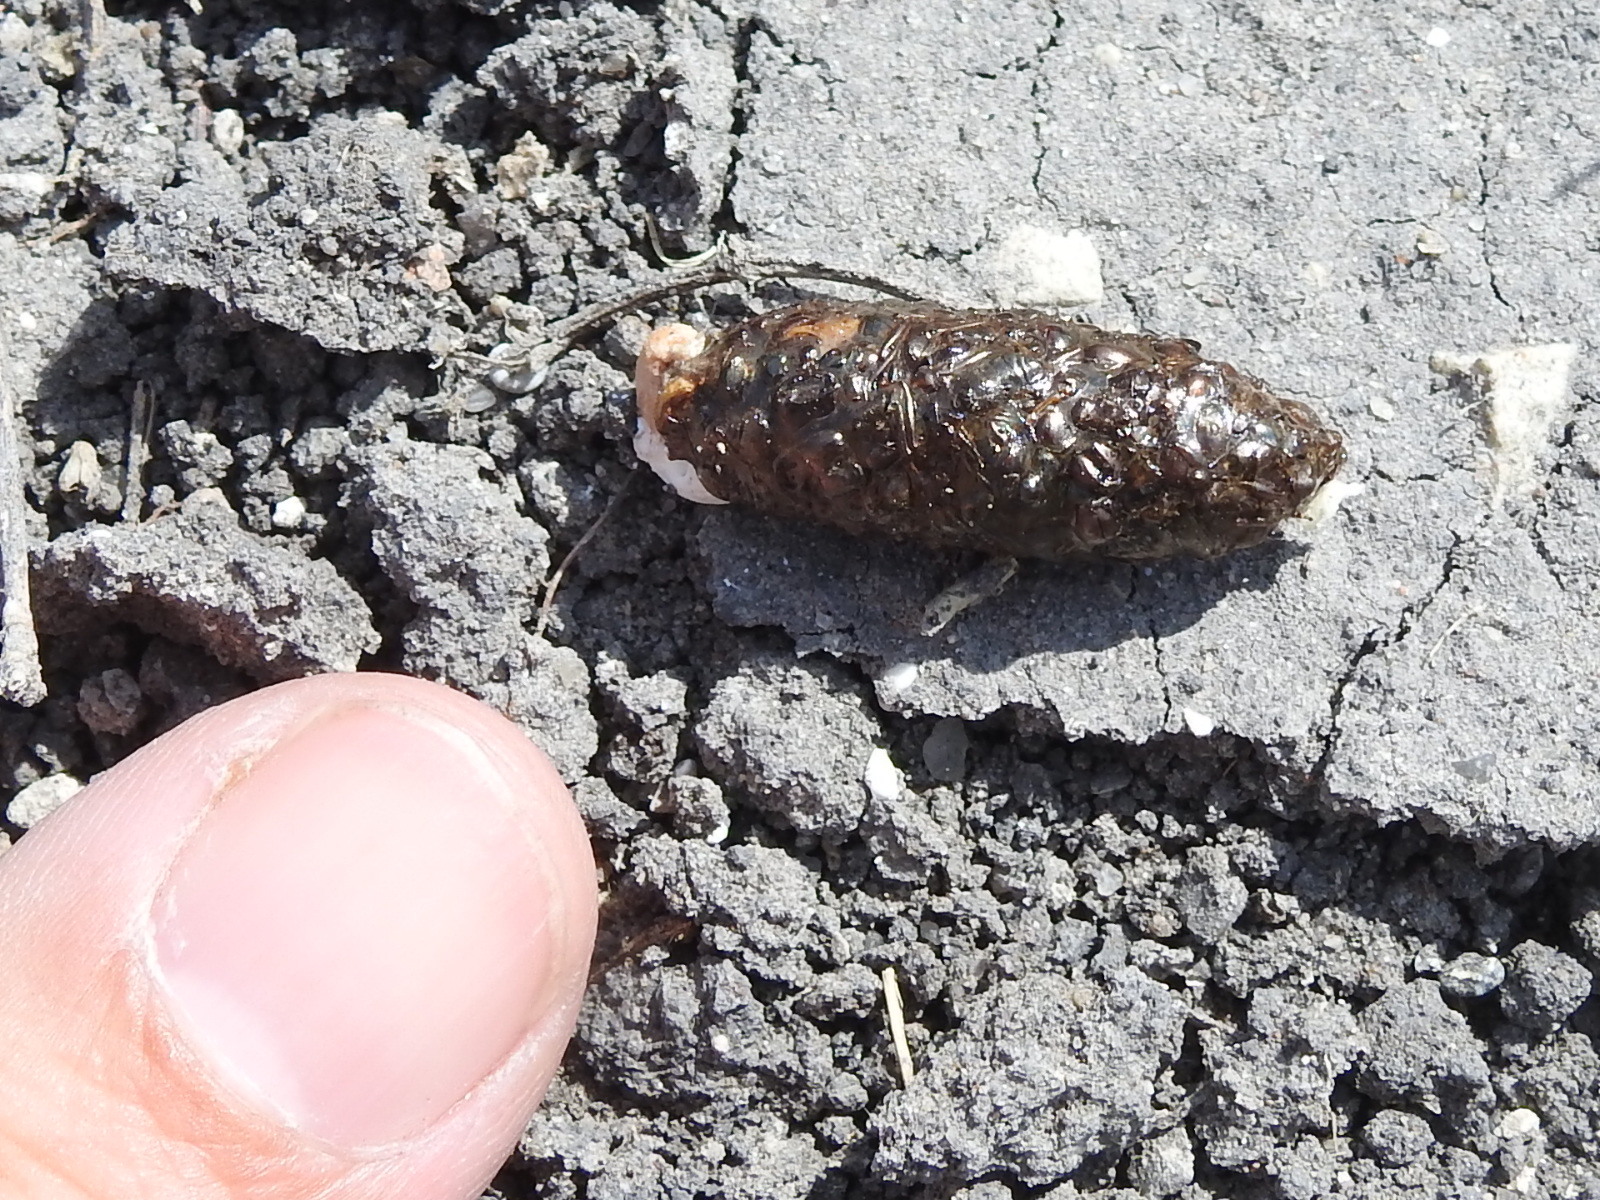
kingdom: Animalia
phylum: Chordata
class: Squamata
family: Phrynosomatidae
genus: Phrynosoma
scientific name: Phrynosoma cornutum
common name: Texas horned lizard
